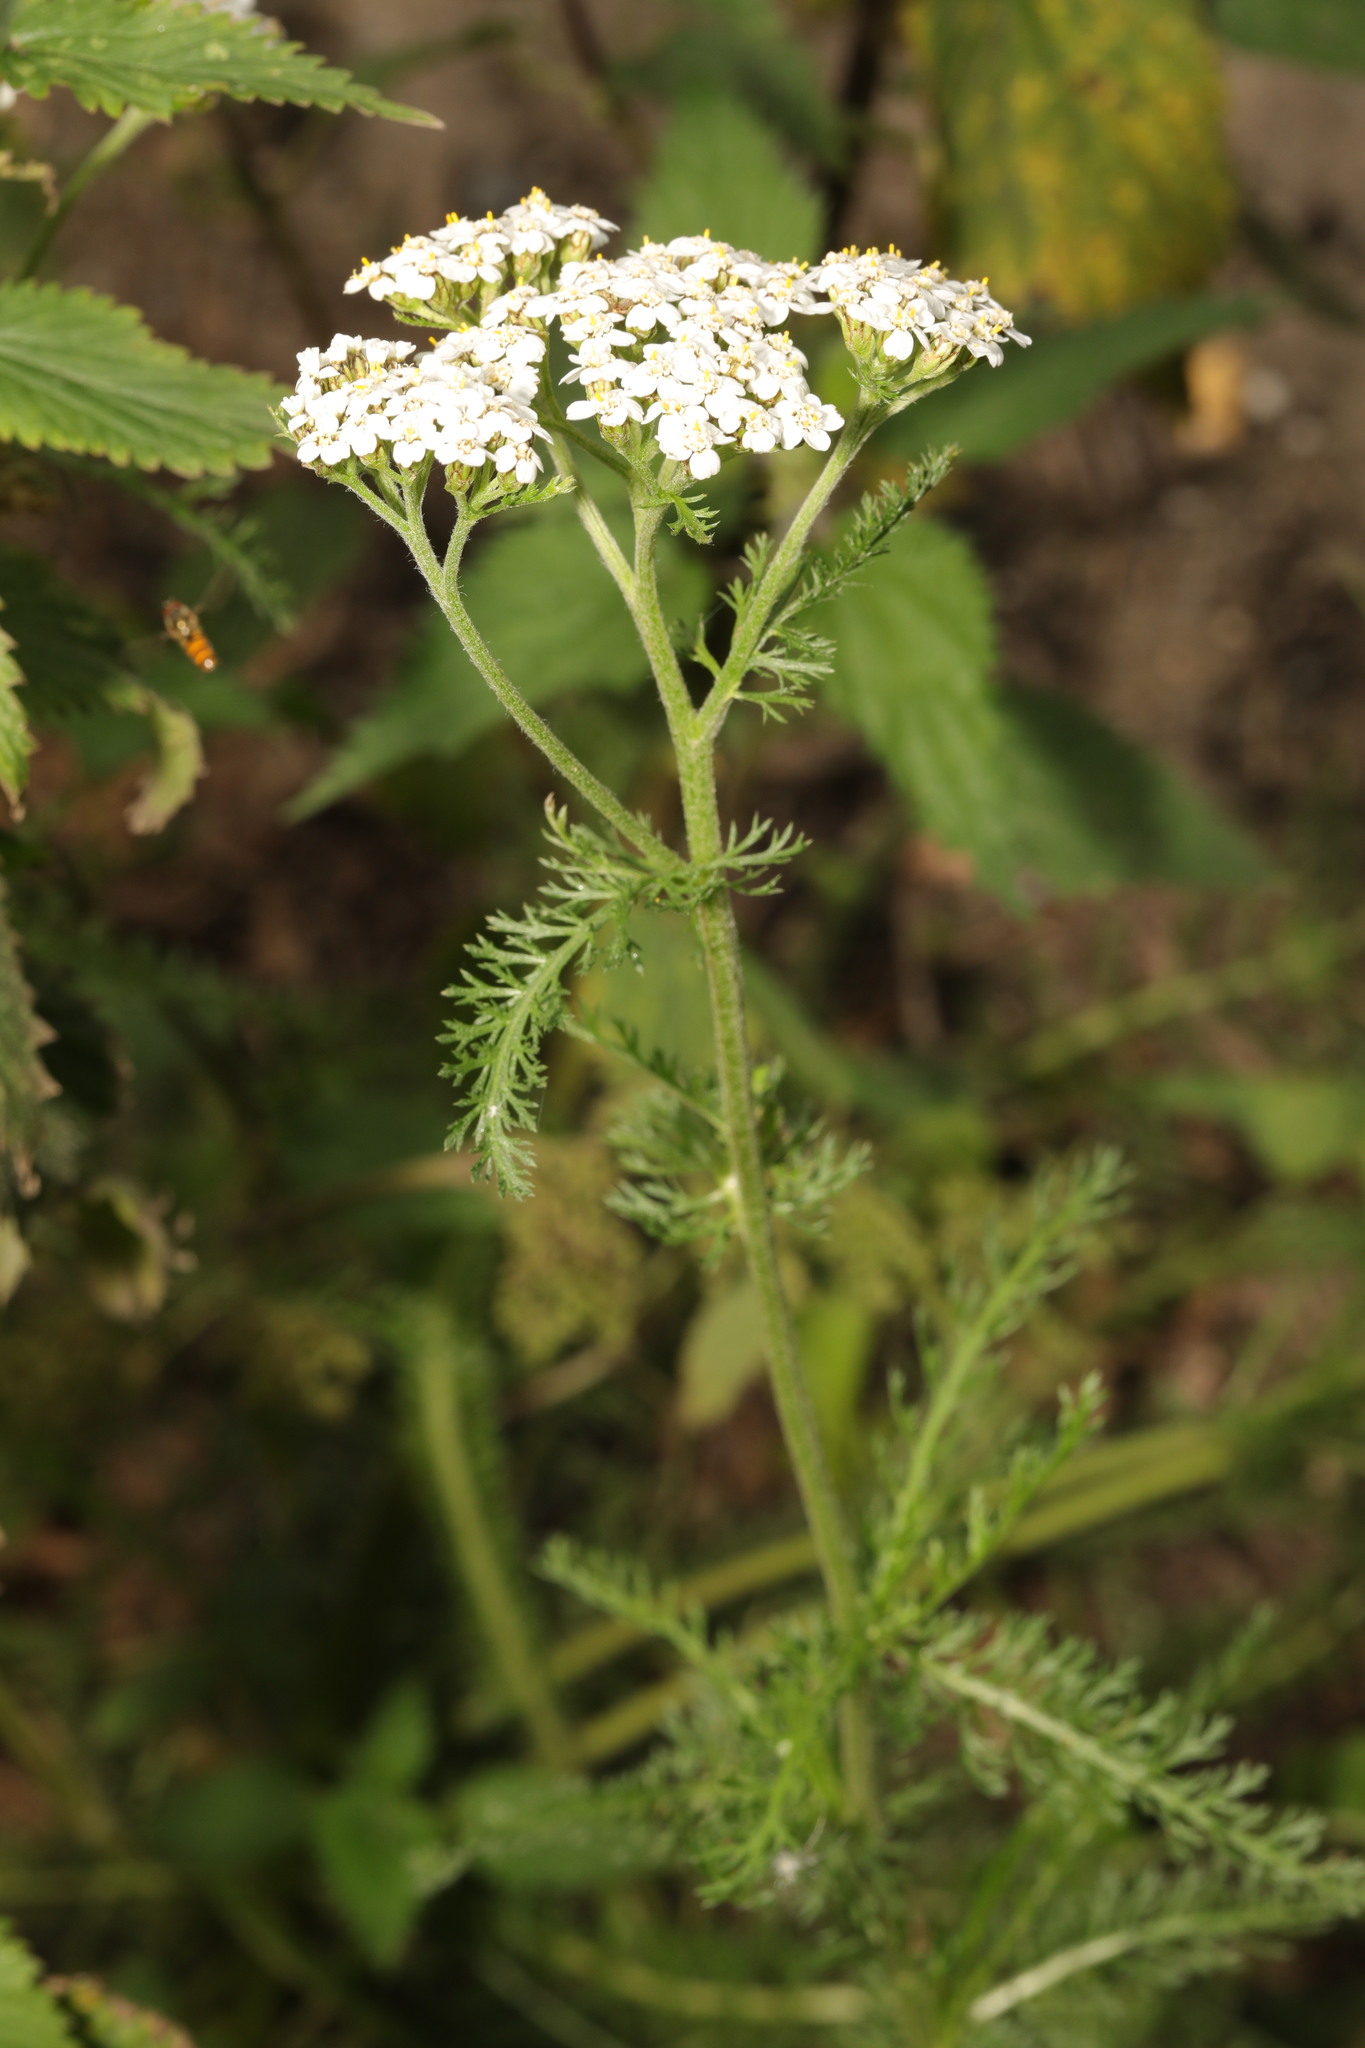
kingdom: Plantae
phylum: Tracheophyta
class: Magnoliopsida
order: Asterales
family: Asteraceae
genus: Achillea
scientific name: Achillea millefolium
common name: Yarrow
